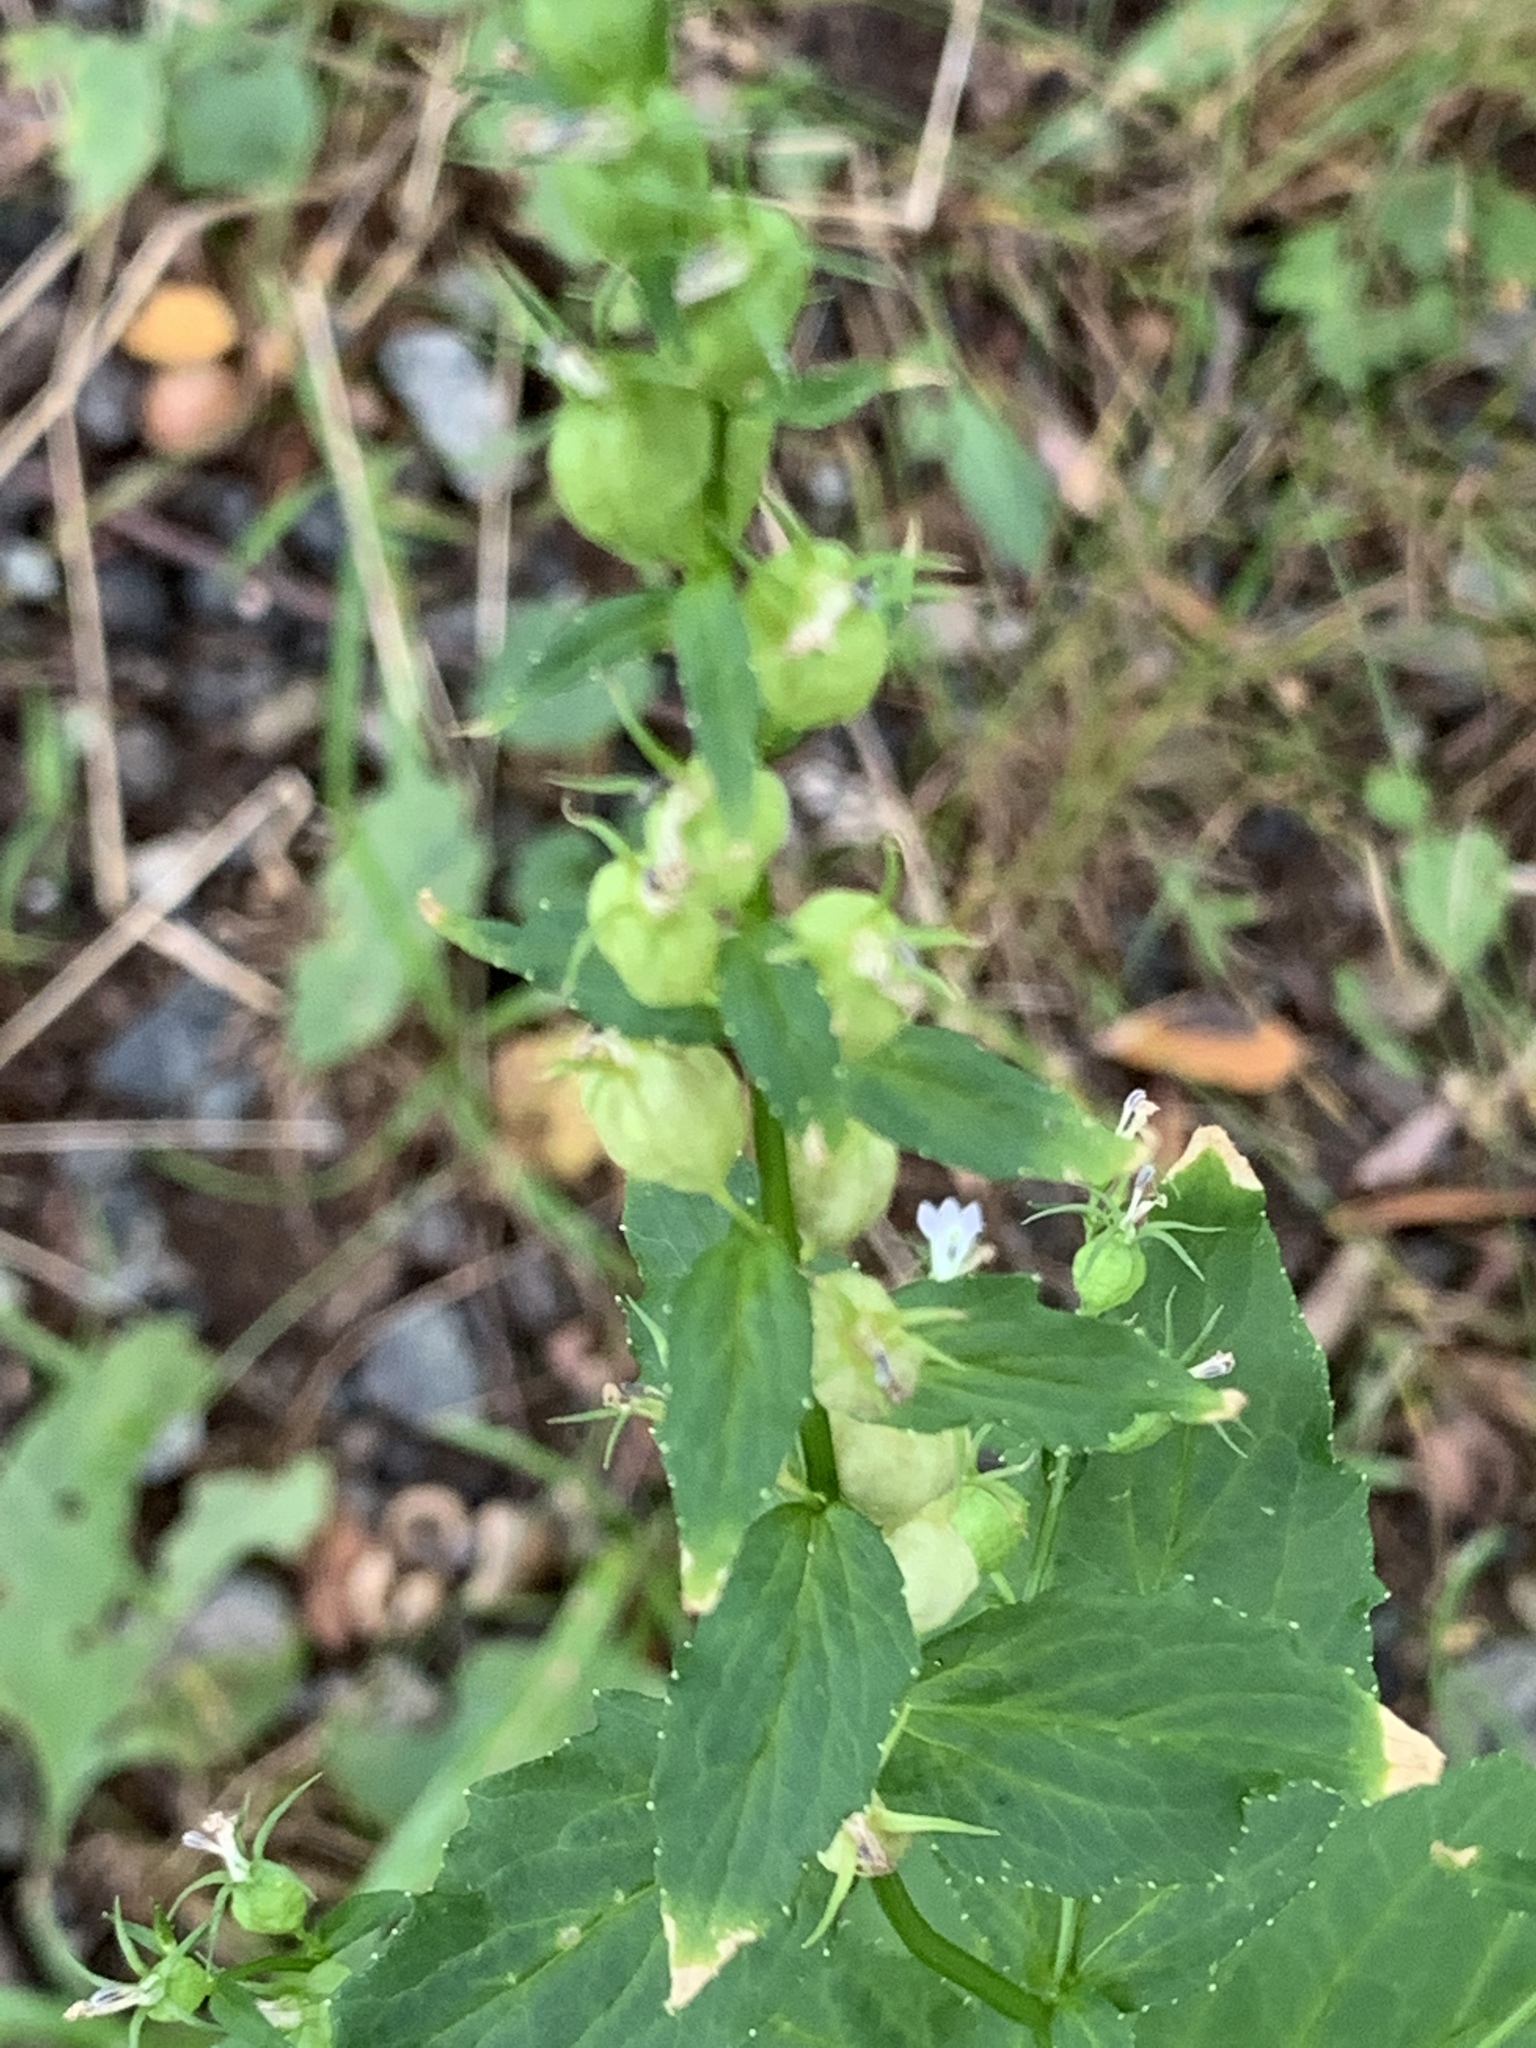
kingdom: Plantae
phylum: Tracheophyta
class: Magnoliopsida
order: Asterales
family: Campanulaceae
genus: Lobelia
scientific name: Lobelia inflata
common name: Indian tobacco
